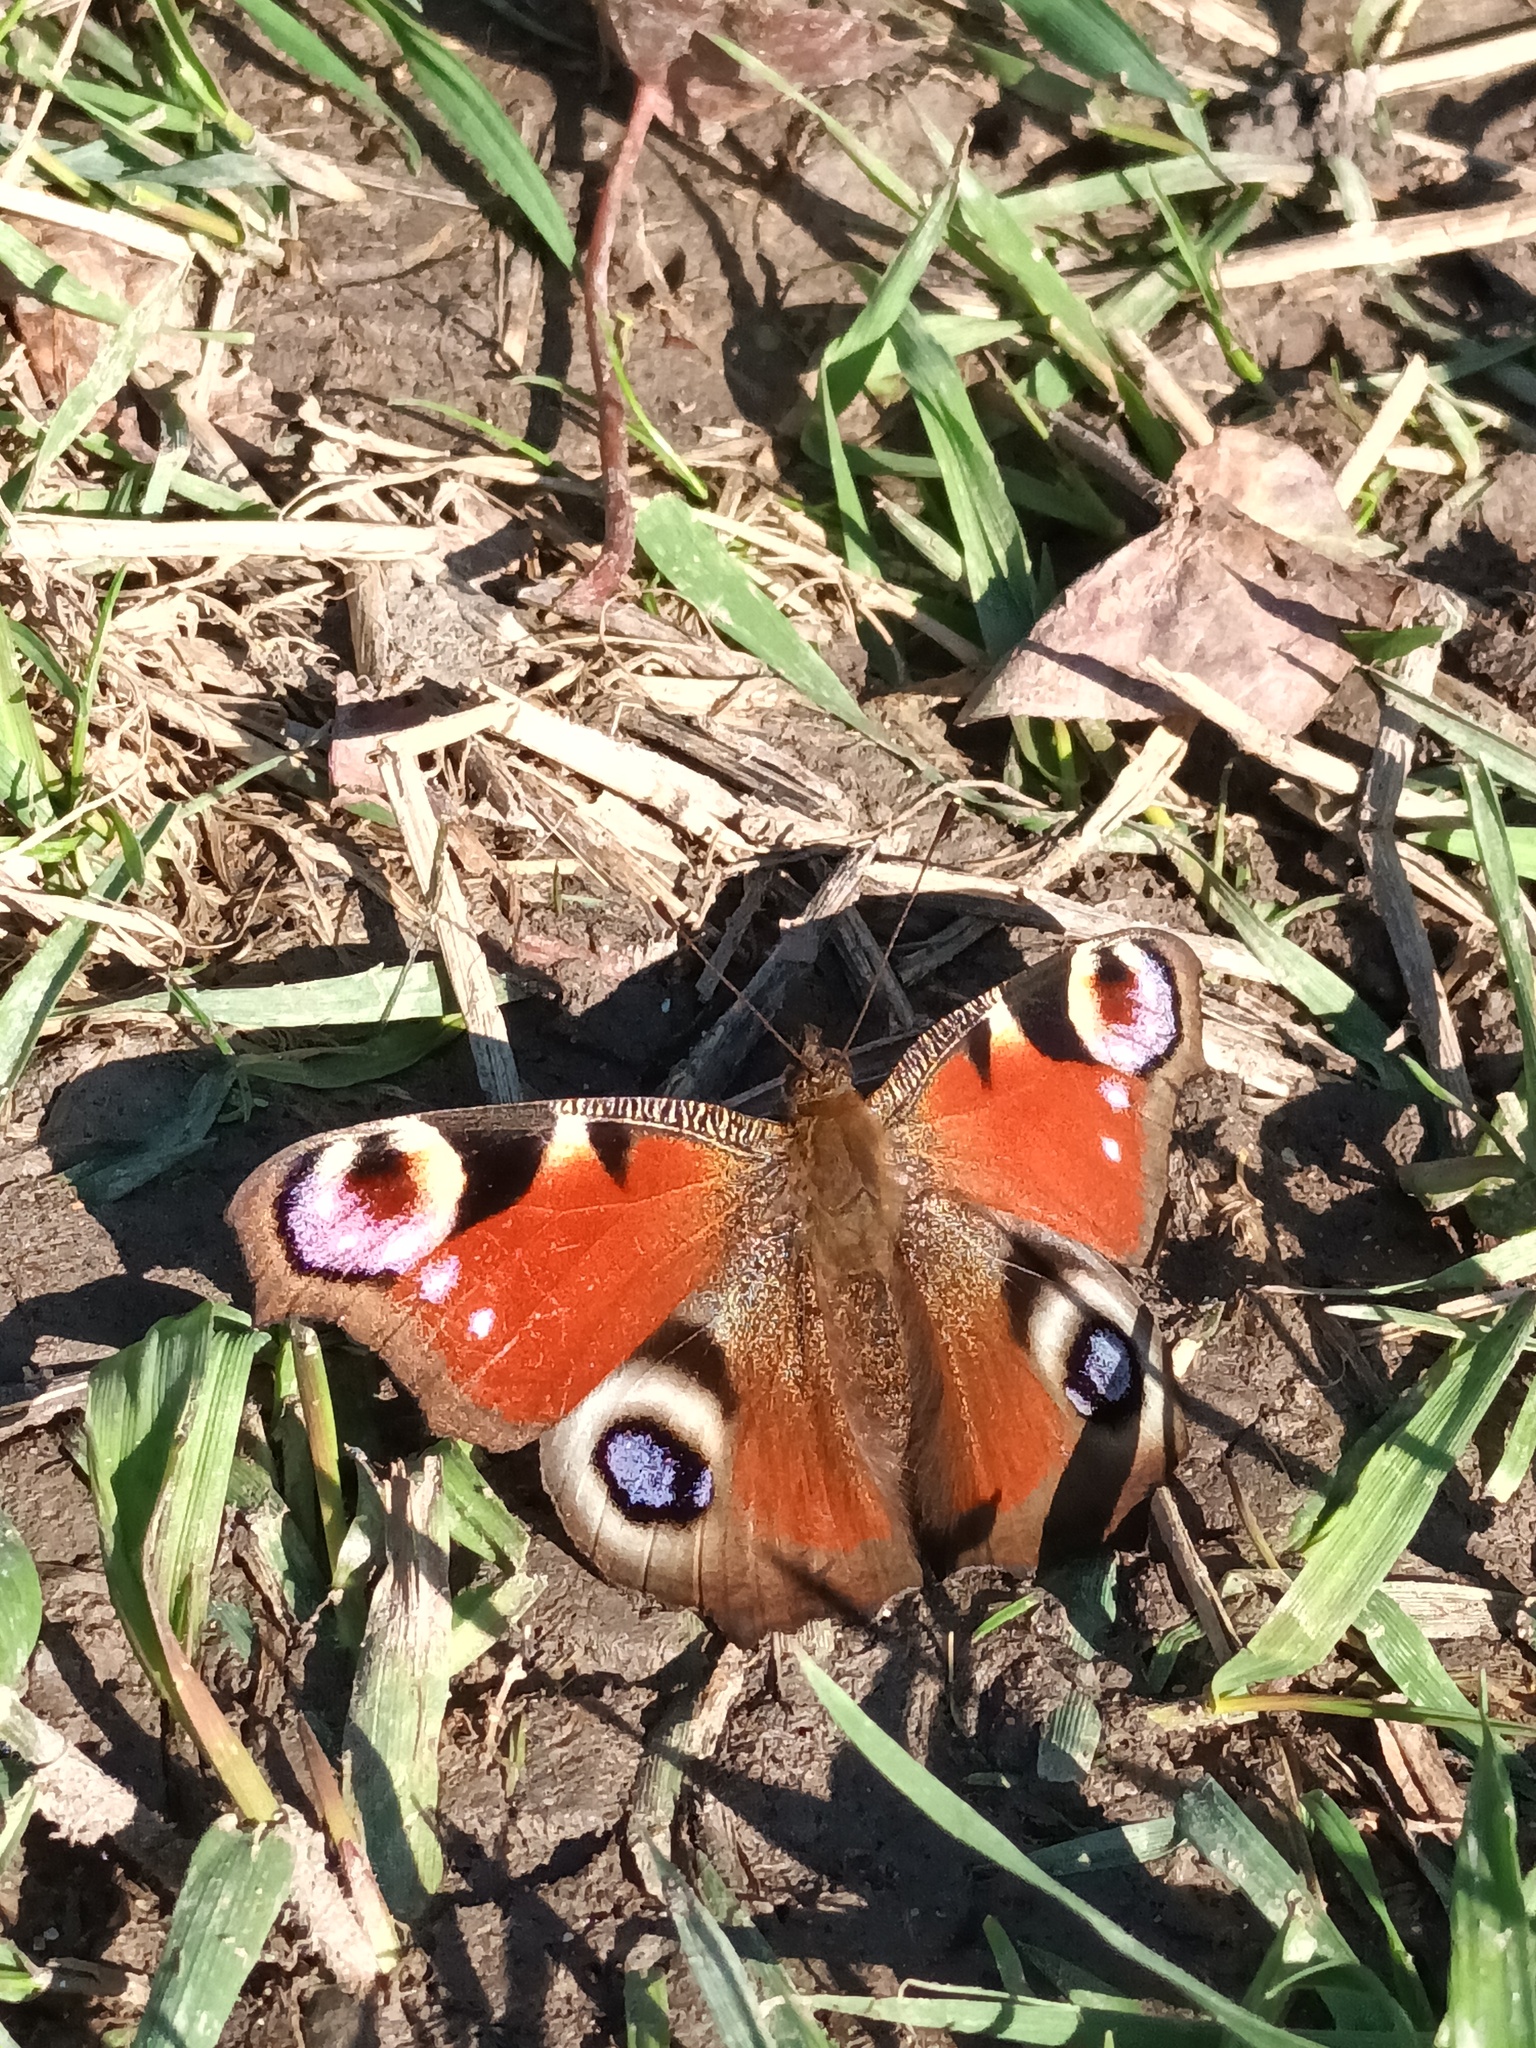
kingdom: Animalia
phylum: Arthropoda
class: Insecta
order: Lepidoptera
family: Nymphalidae
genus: Aglais
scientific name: Aglais io
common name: Peacock
